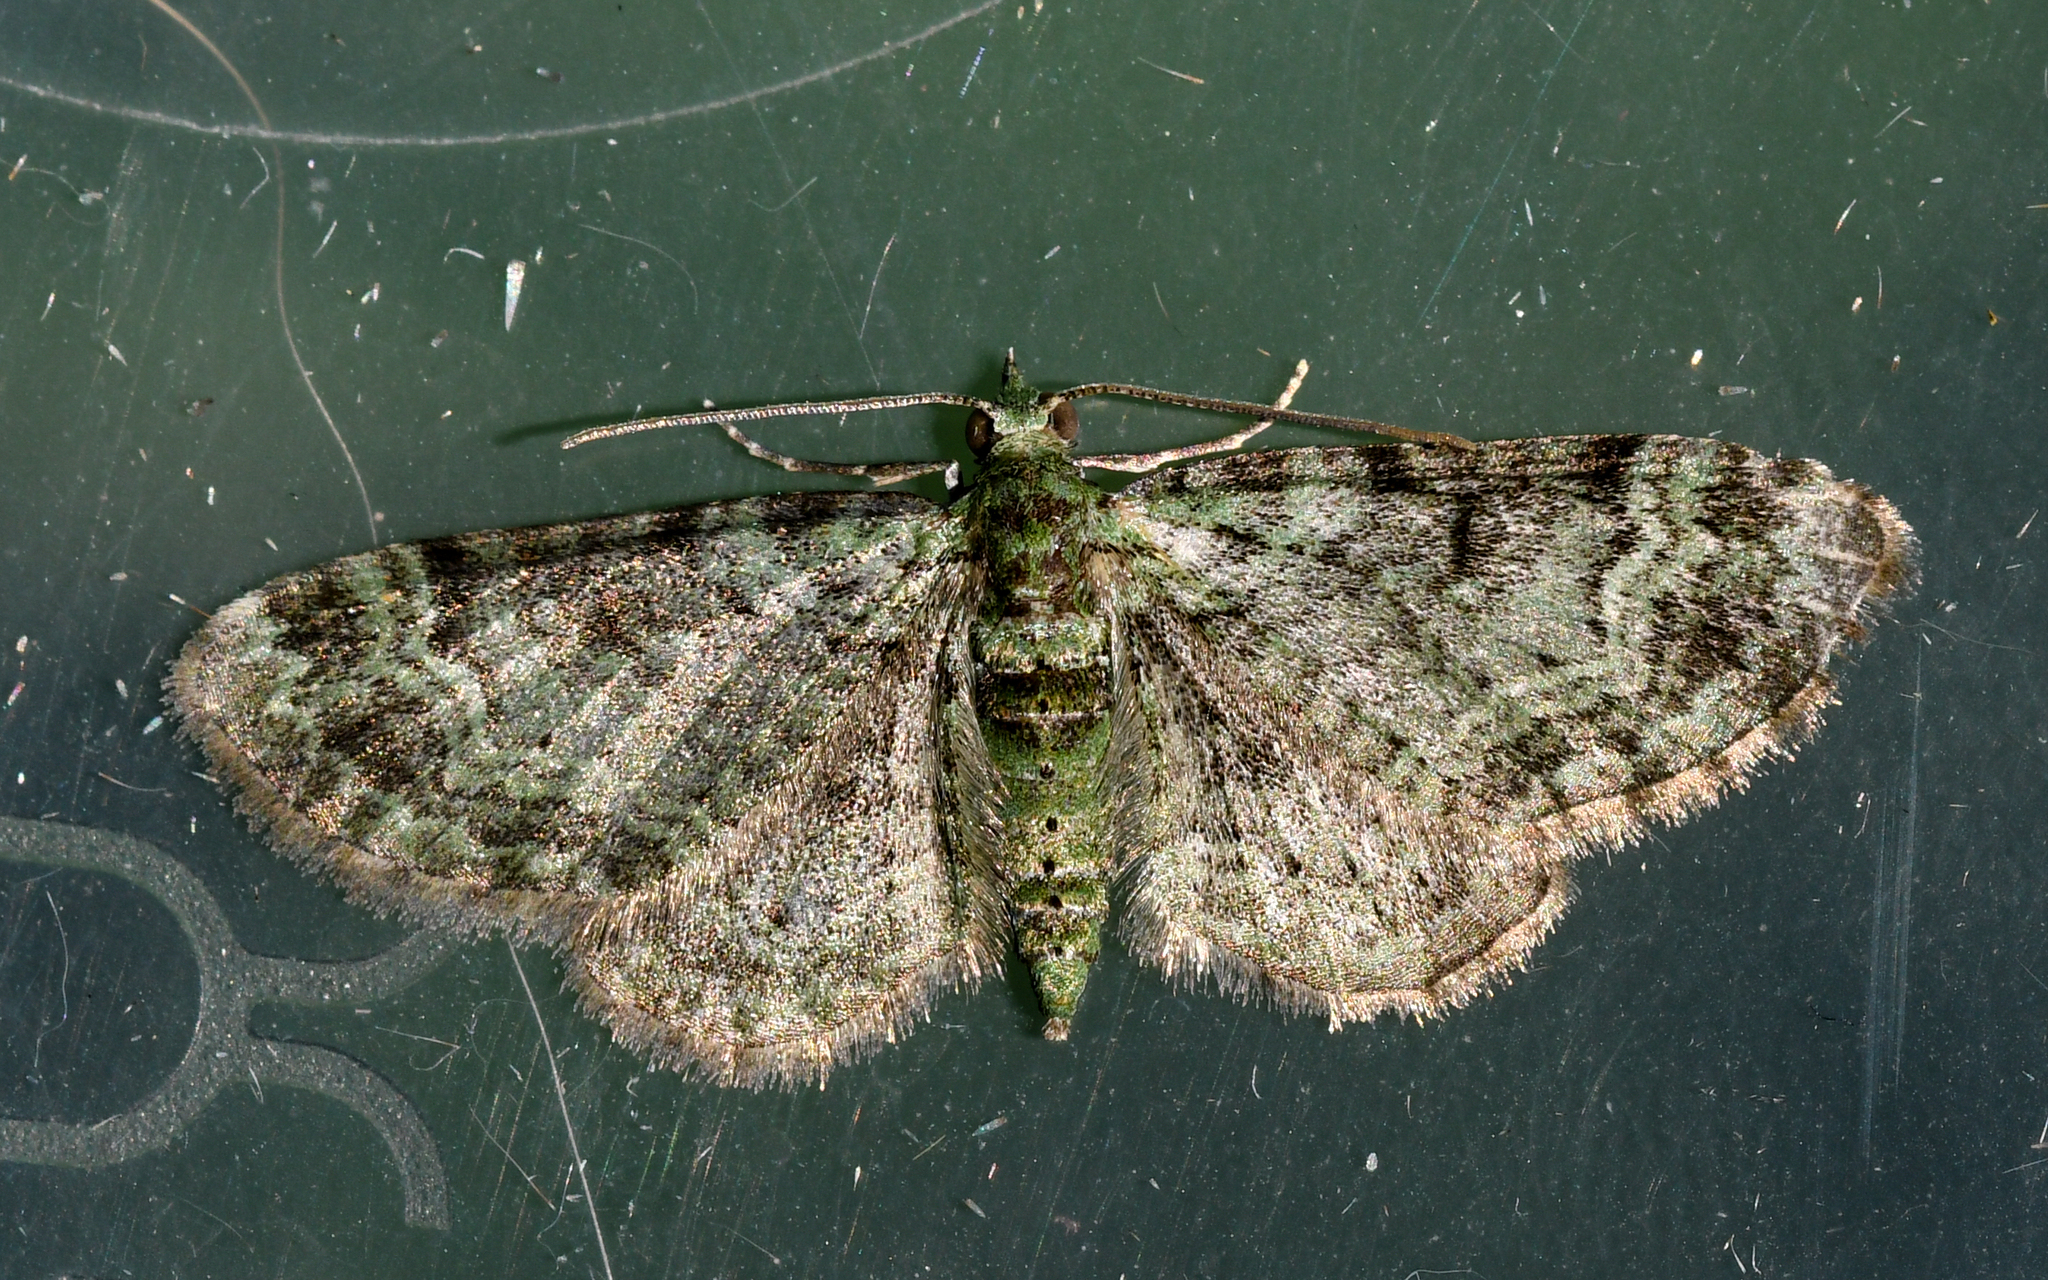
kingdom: Animalia
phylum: Arthropoda
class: Insecta
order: Lepidoptera
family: Geometridae
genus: Pasiphila
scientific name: Pasiphila rectangulata
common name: Green pug
